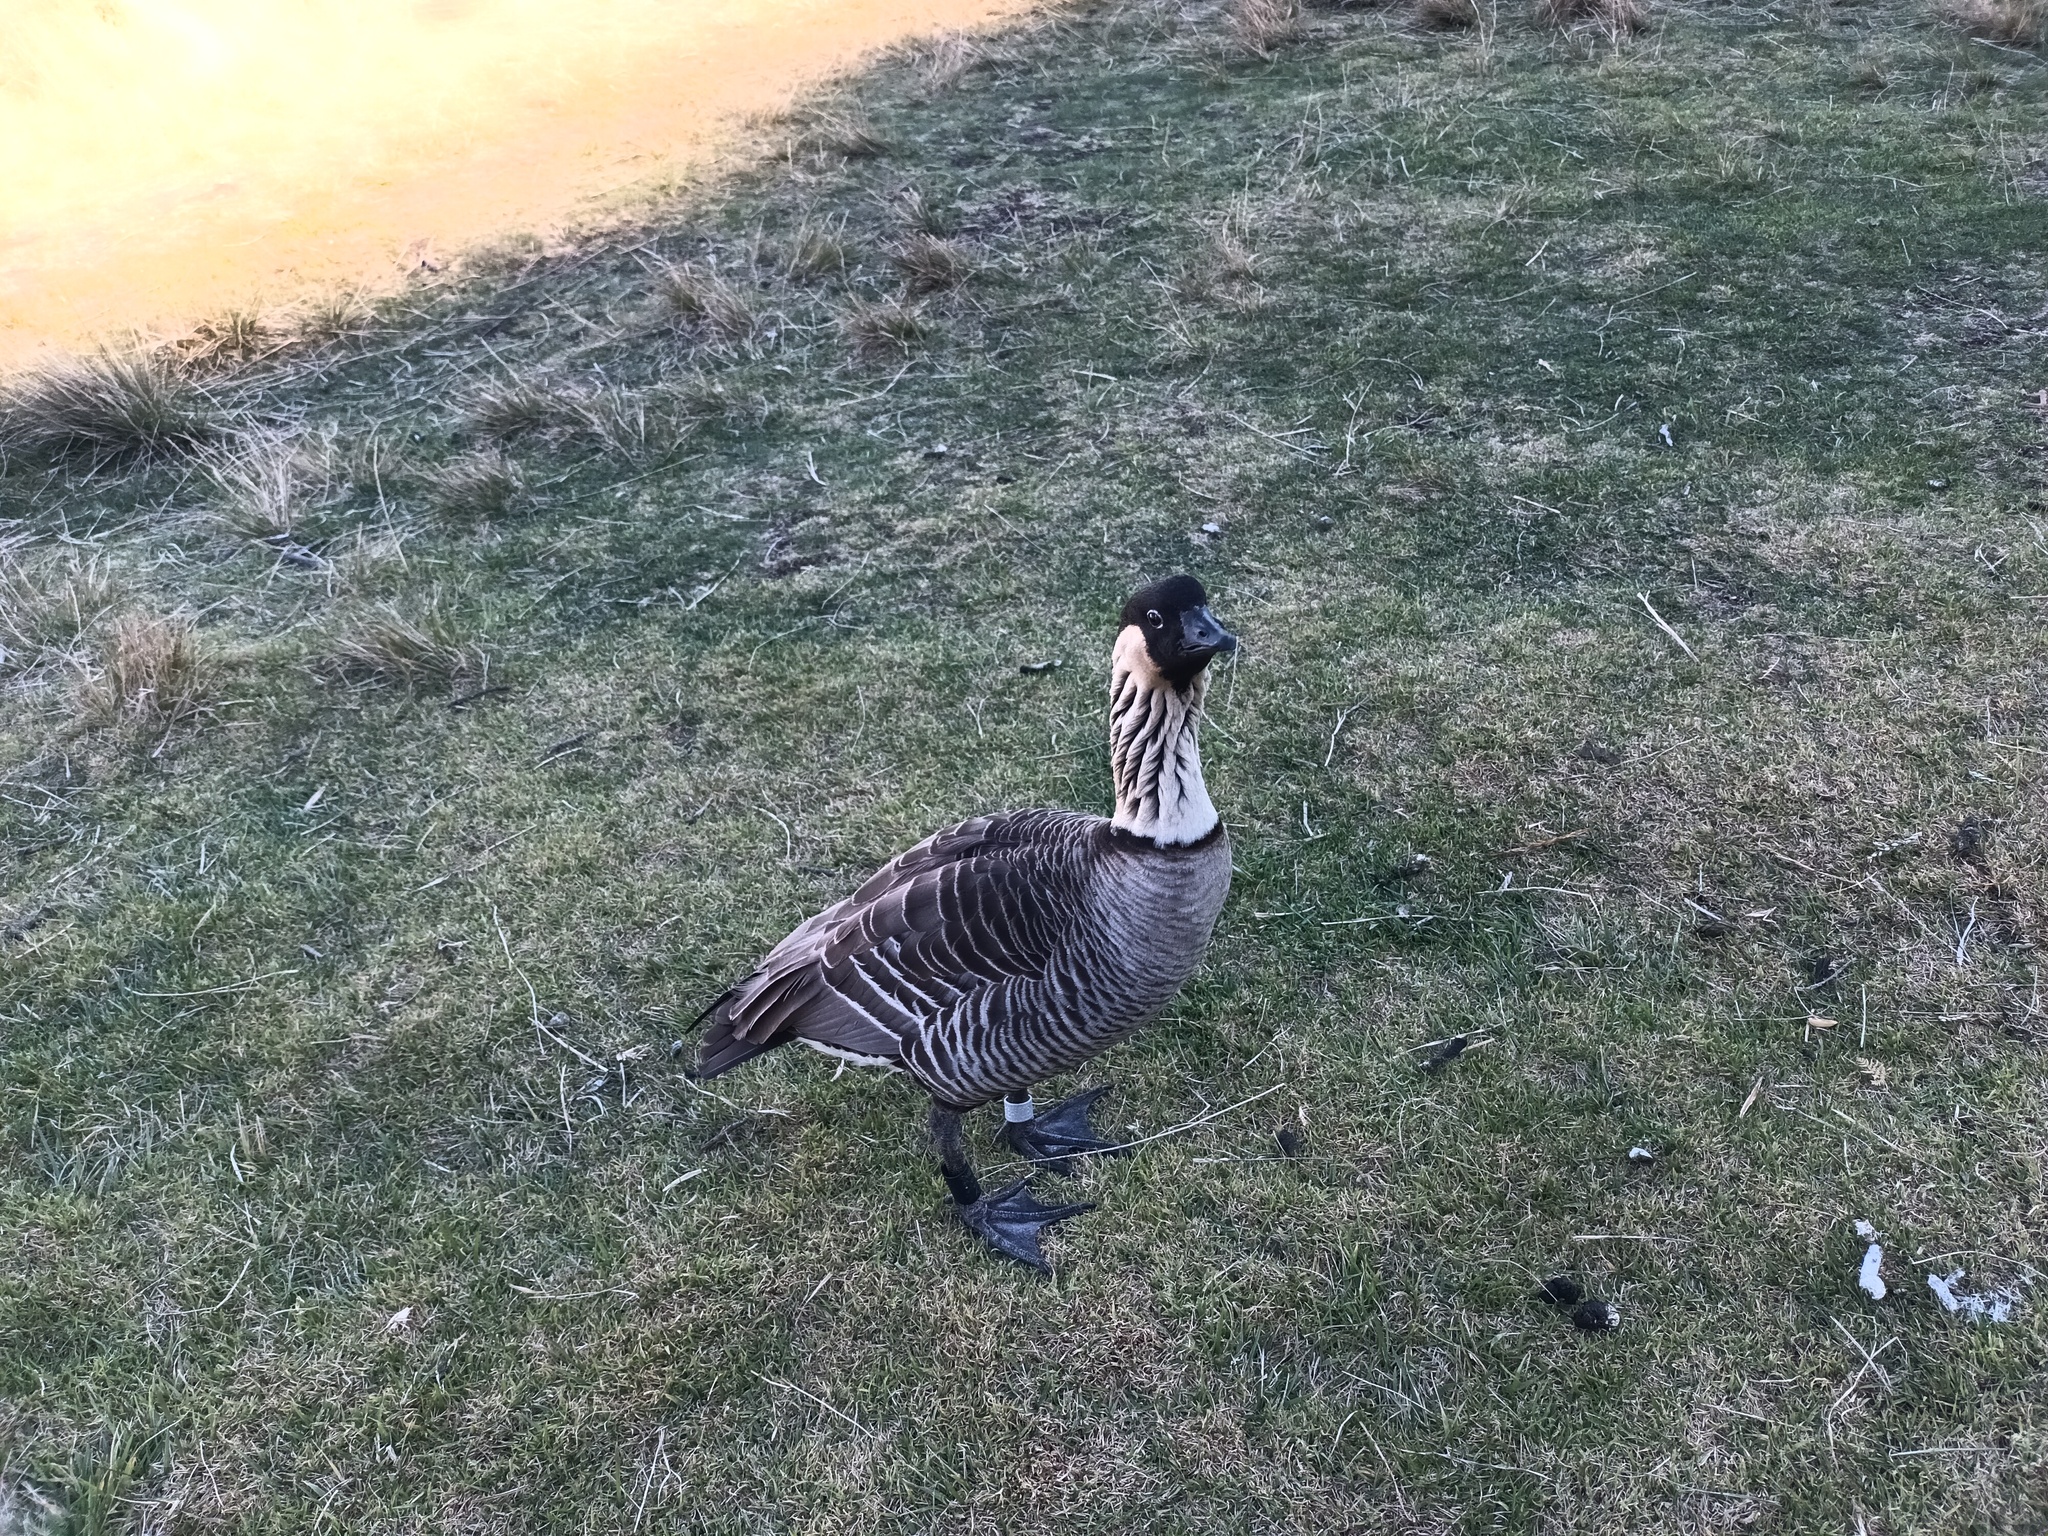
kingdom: Animalia
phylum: Chordata
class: Aves
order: Anseriformes
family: Anatidae
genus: Branta
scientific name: Branta sandvicensis
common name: Nene
